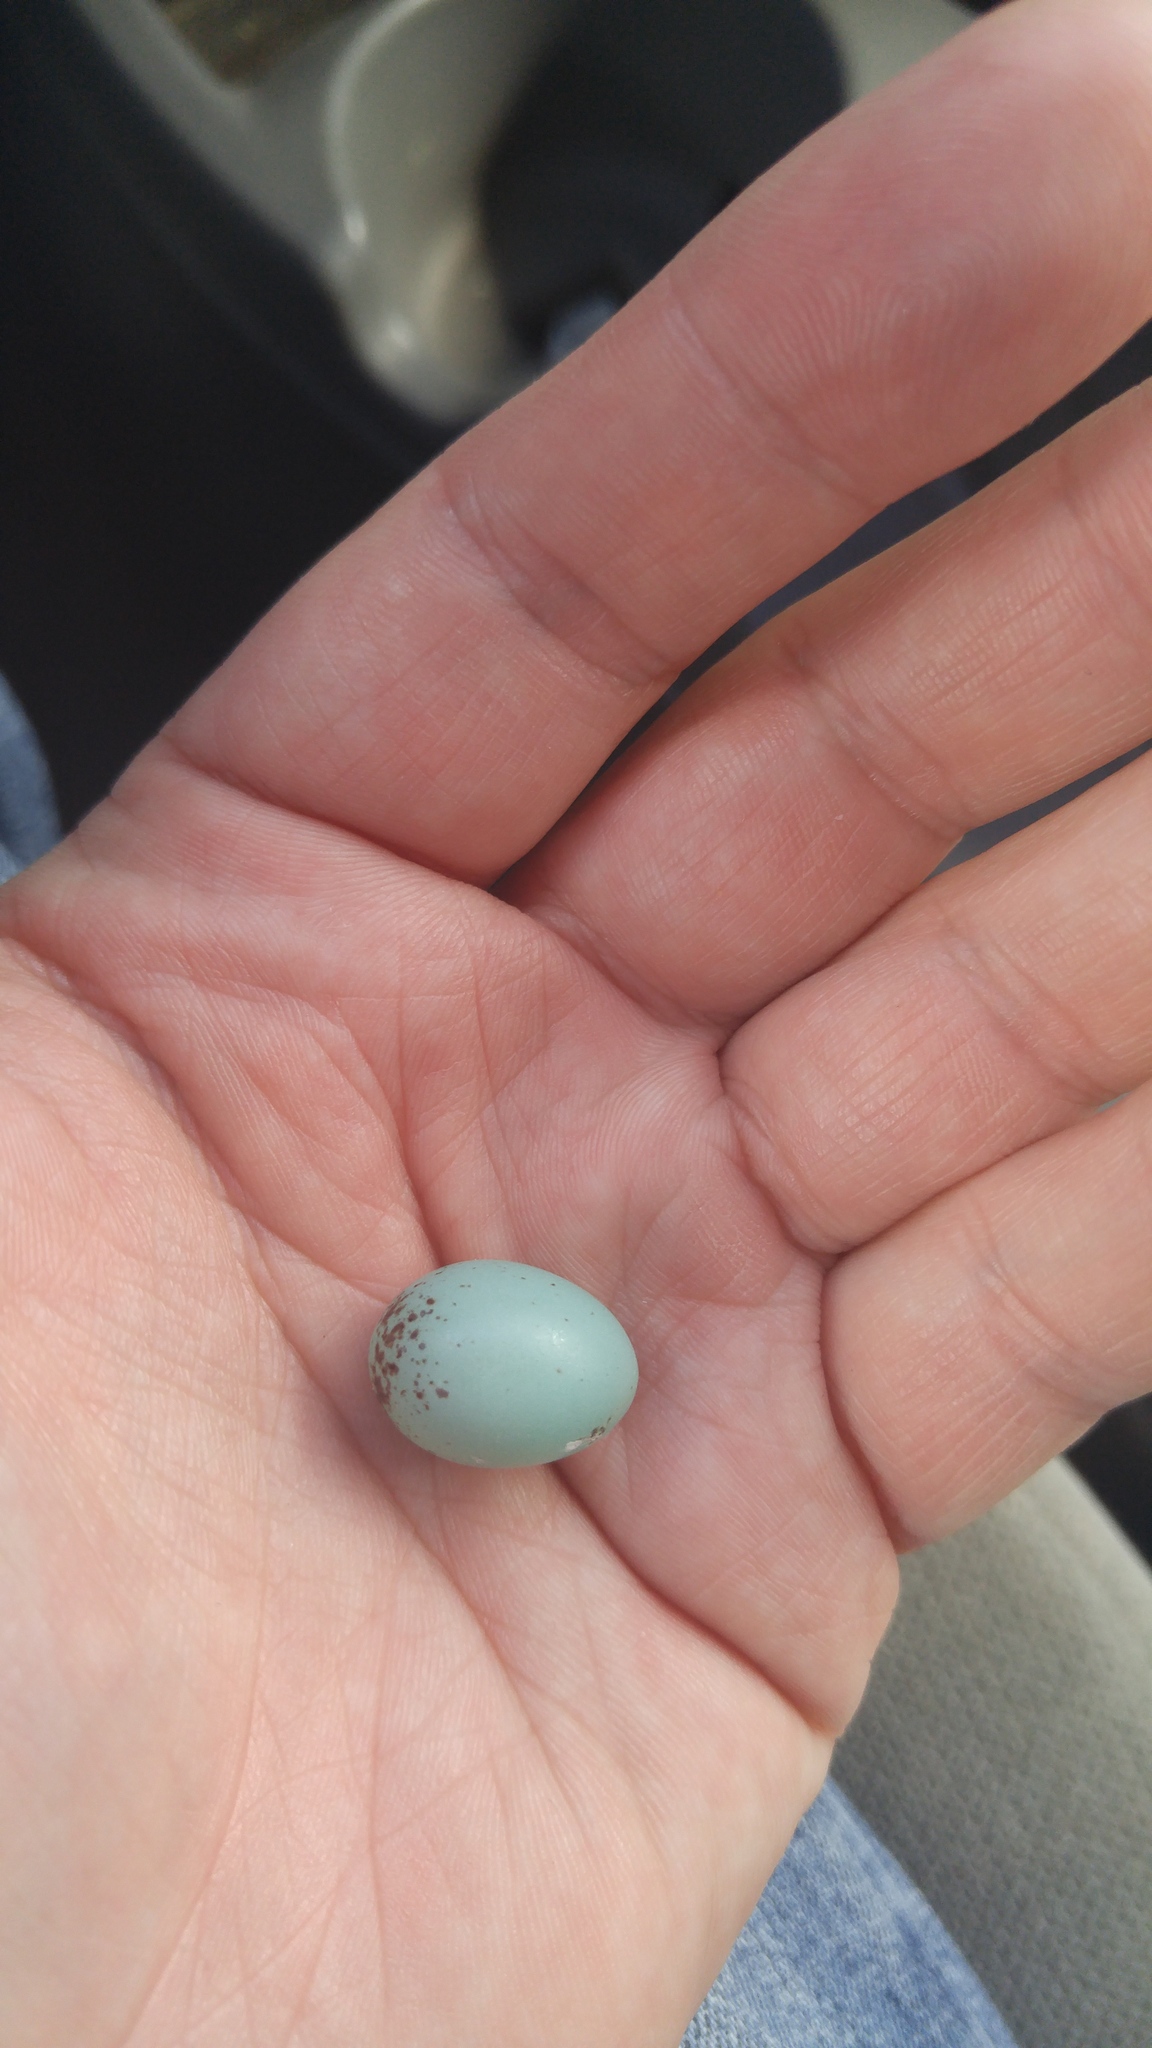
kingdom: Animalia
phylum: Chordata
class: Aves
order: Passeriformes
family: Passerellidae
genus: Spizella
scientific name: Spizella pallida
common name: Clay-colored sparrow
